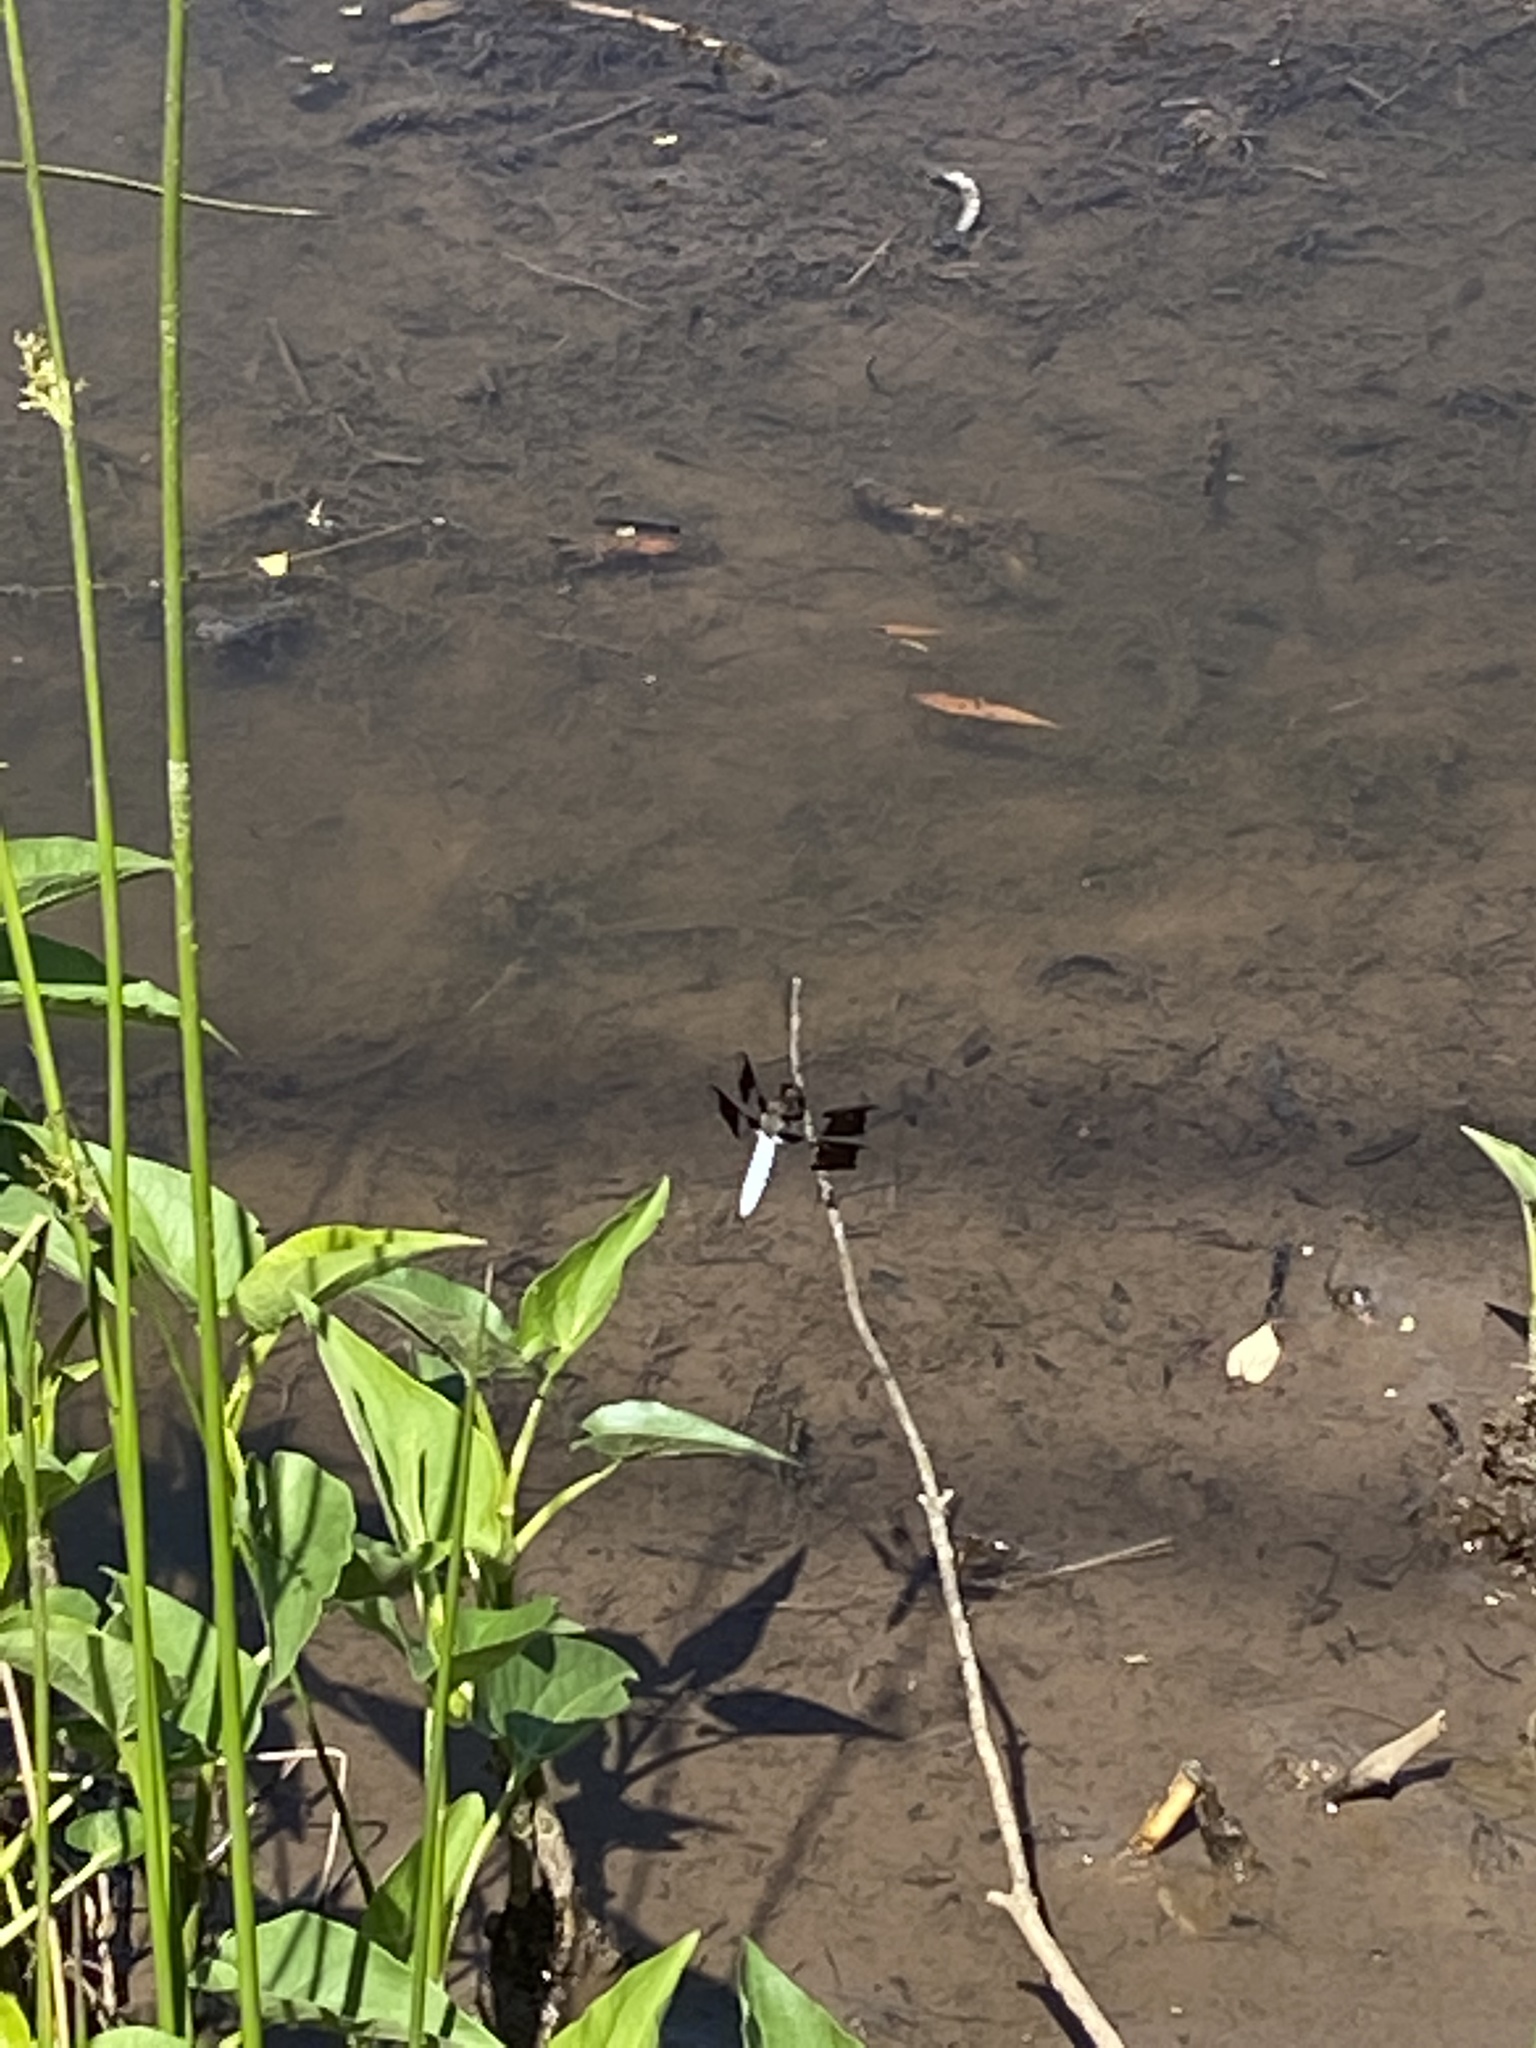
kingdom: Animalia
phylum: Arthropoda
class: Insecta
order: Odonata
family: Libellulidae
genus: Plathemis
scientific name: Plathemis lydia
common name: Common whitetail
